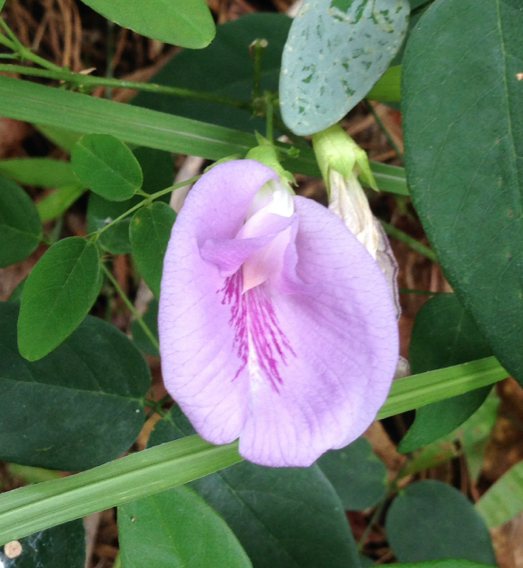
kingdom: Plantae
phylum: Tracheophyta
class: Magnoliopsida
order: Fabales
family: Fabaceae
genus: Clitoria
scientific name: Clitoria mariana
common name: Butterfly-pea
